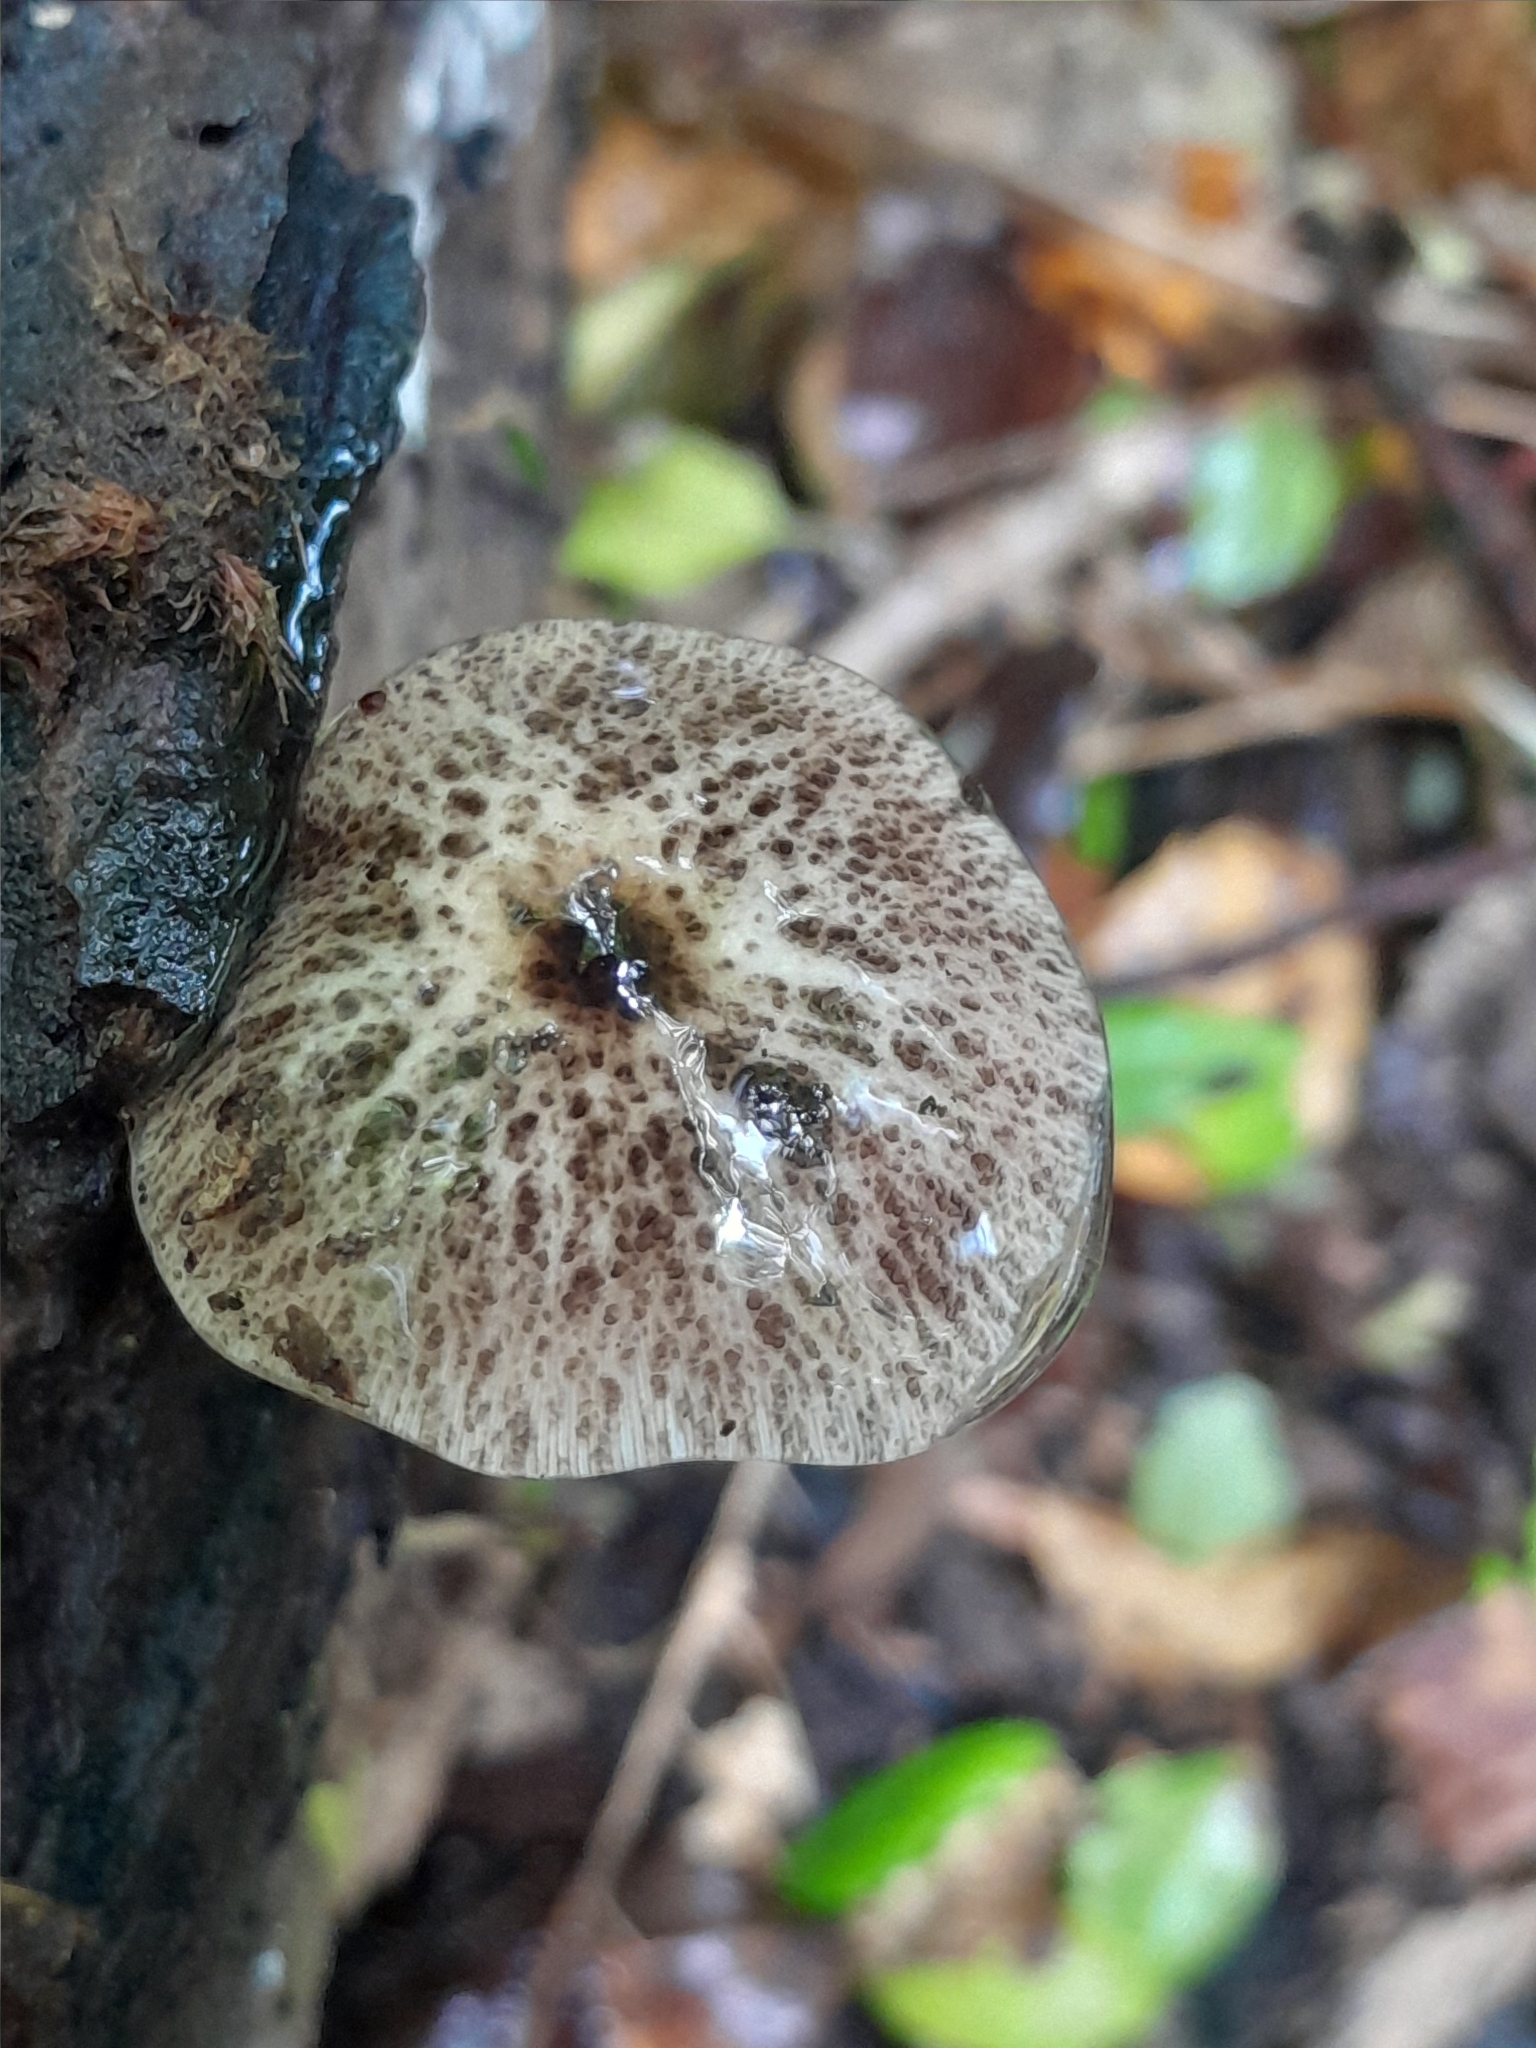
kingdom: Fungi
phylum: Basidiomycota
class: Agaricomycetes
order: Agaricales
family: Bolbitiaceae
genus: Bolbitius
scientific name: Bolbitius muscicola
